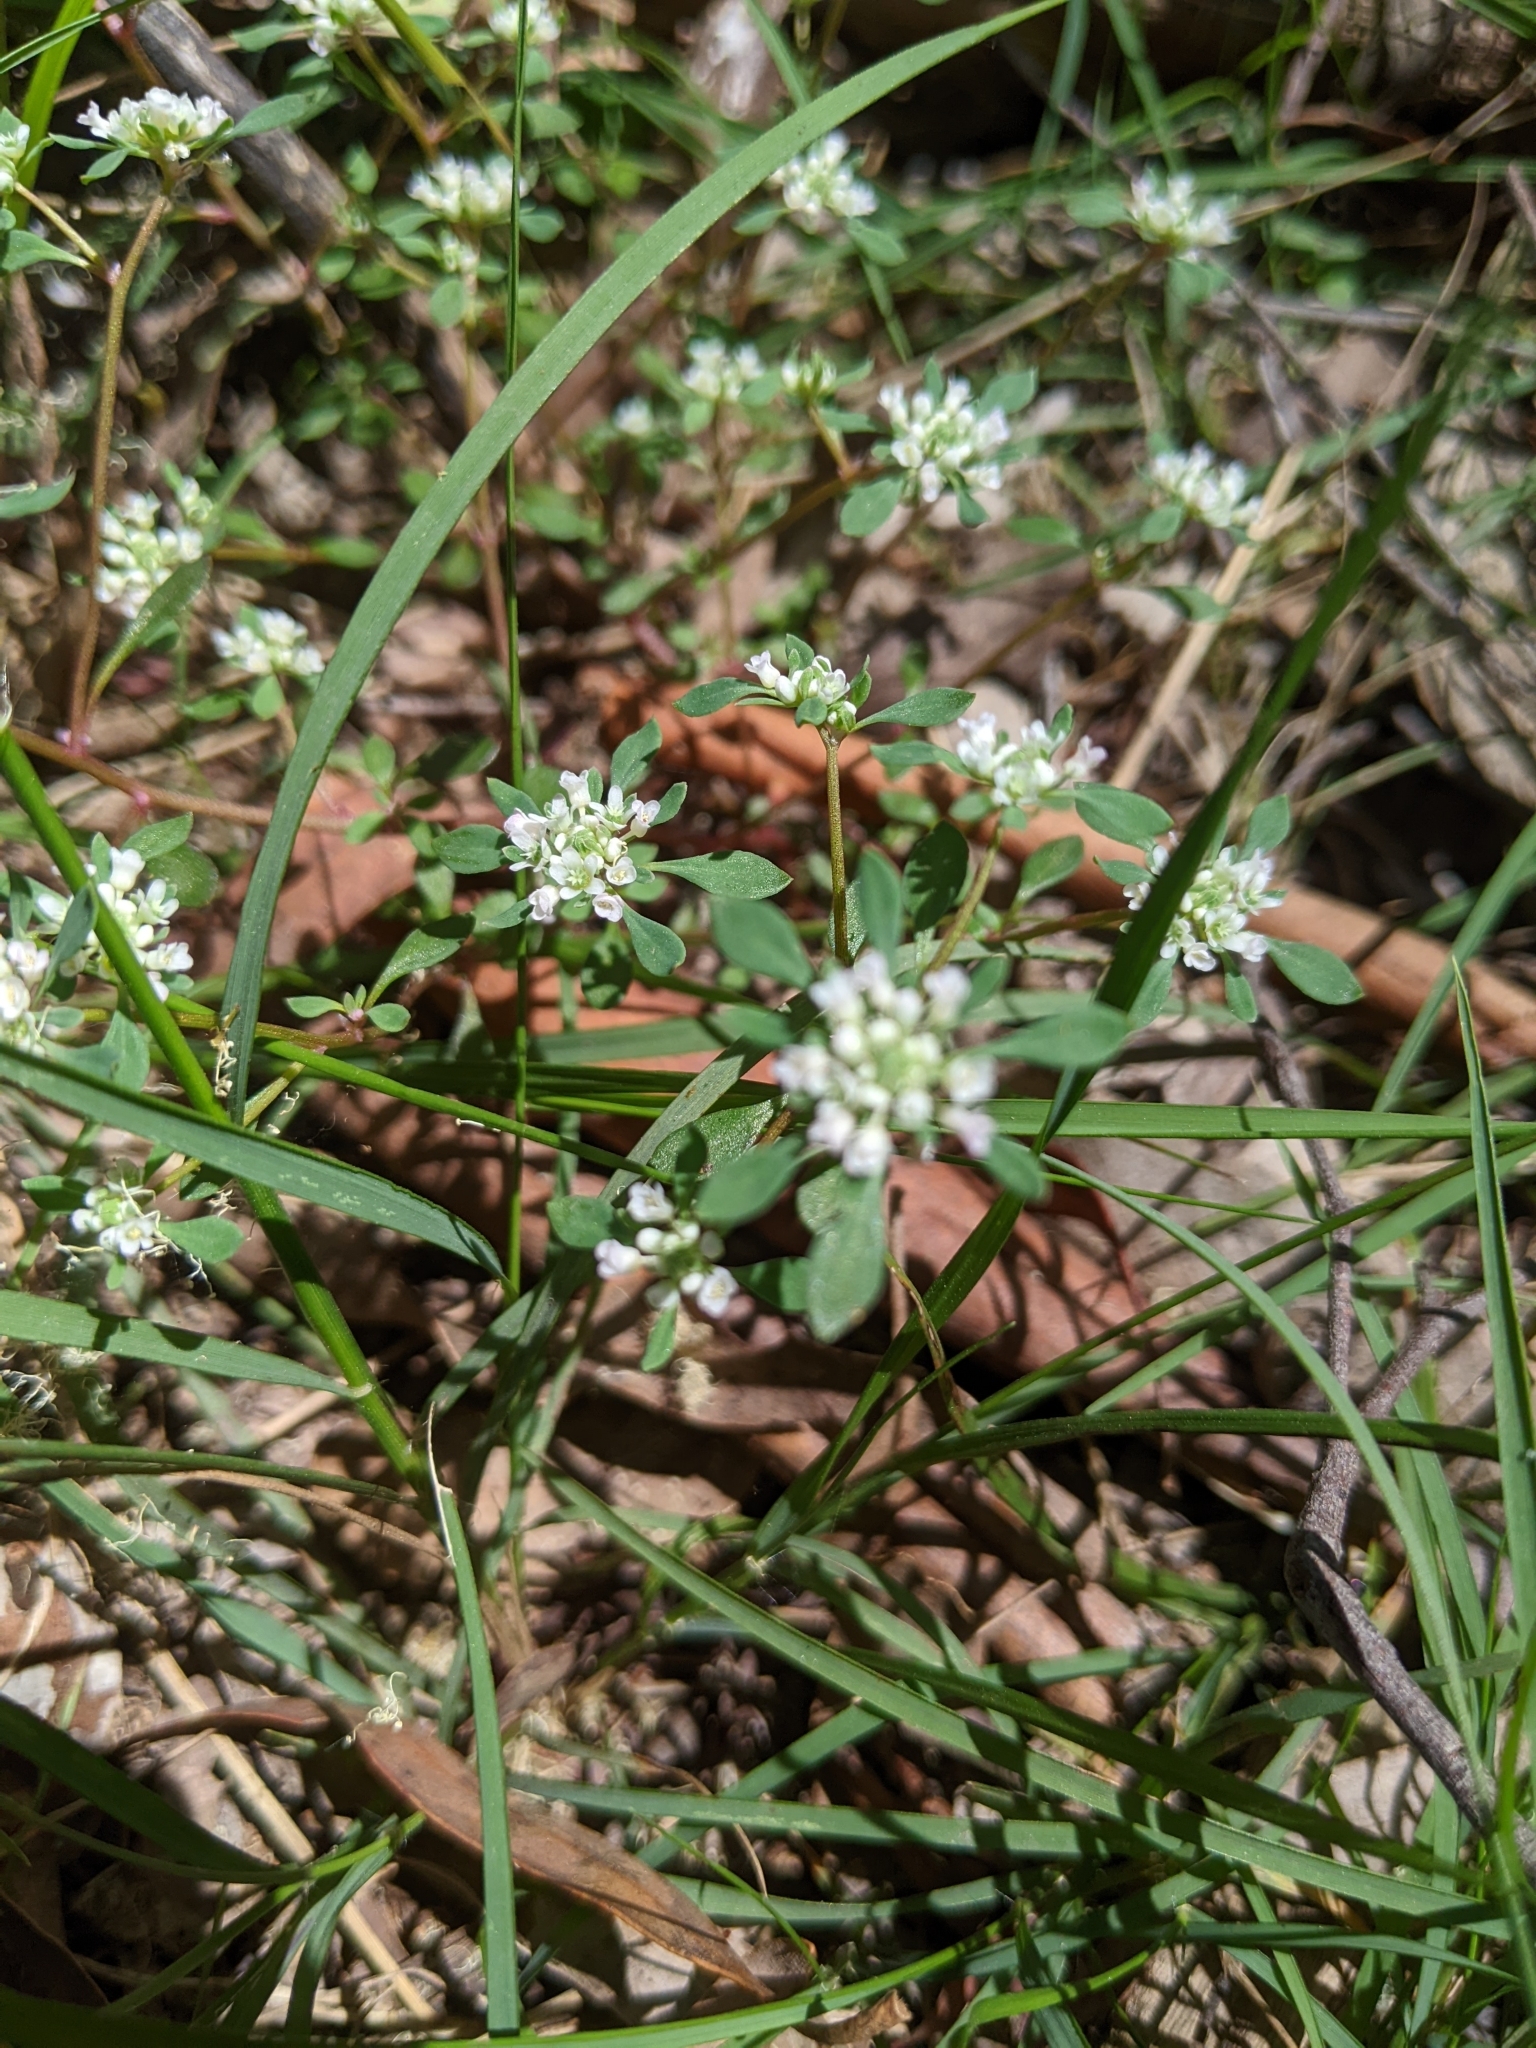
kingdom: Plantae
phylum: Tracheophyta
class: Magnoliopsida
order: Malpighiales
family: Phyllanthaceae
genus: Poranthera
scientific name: Poranthera microphylla
